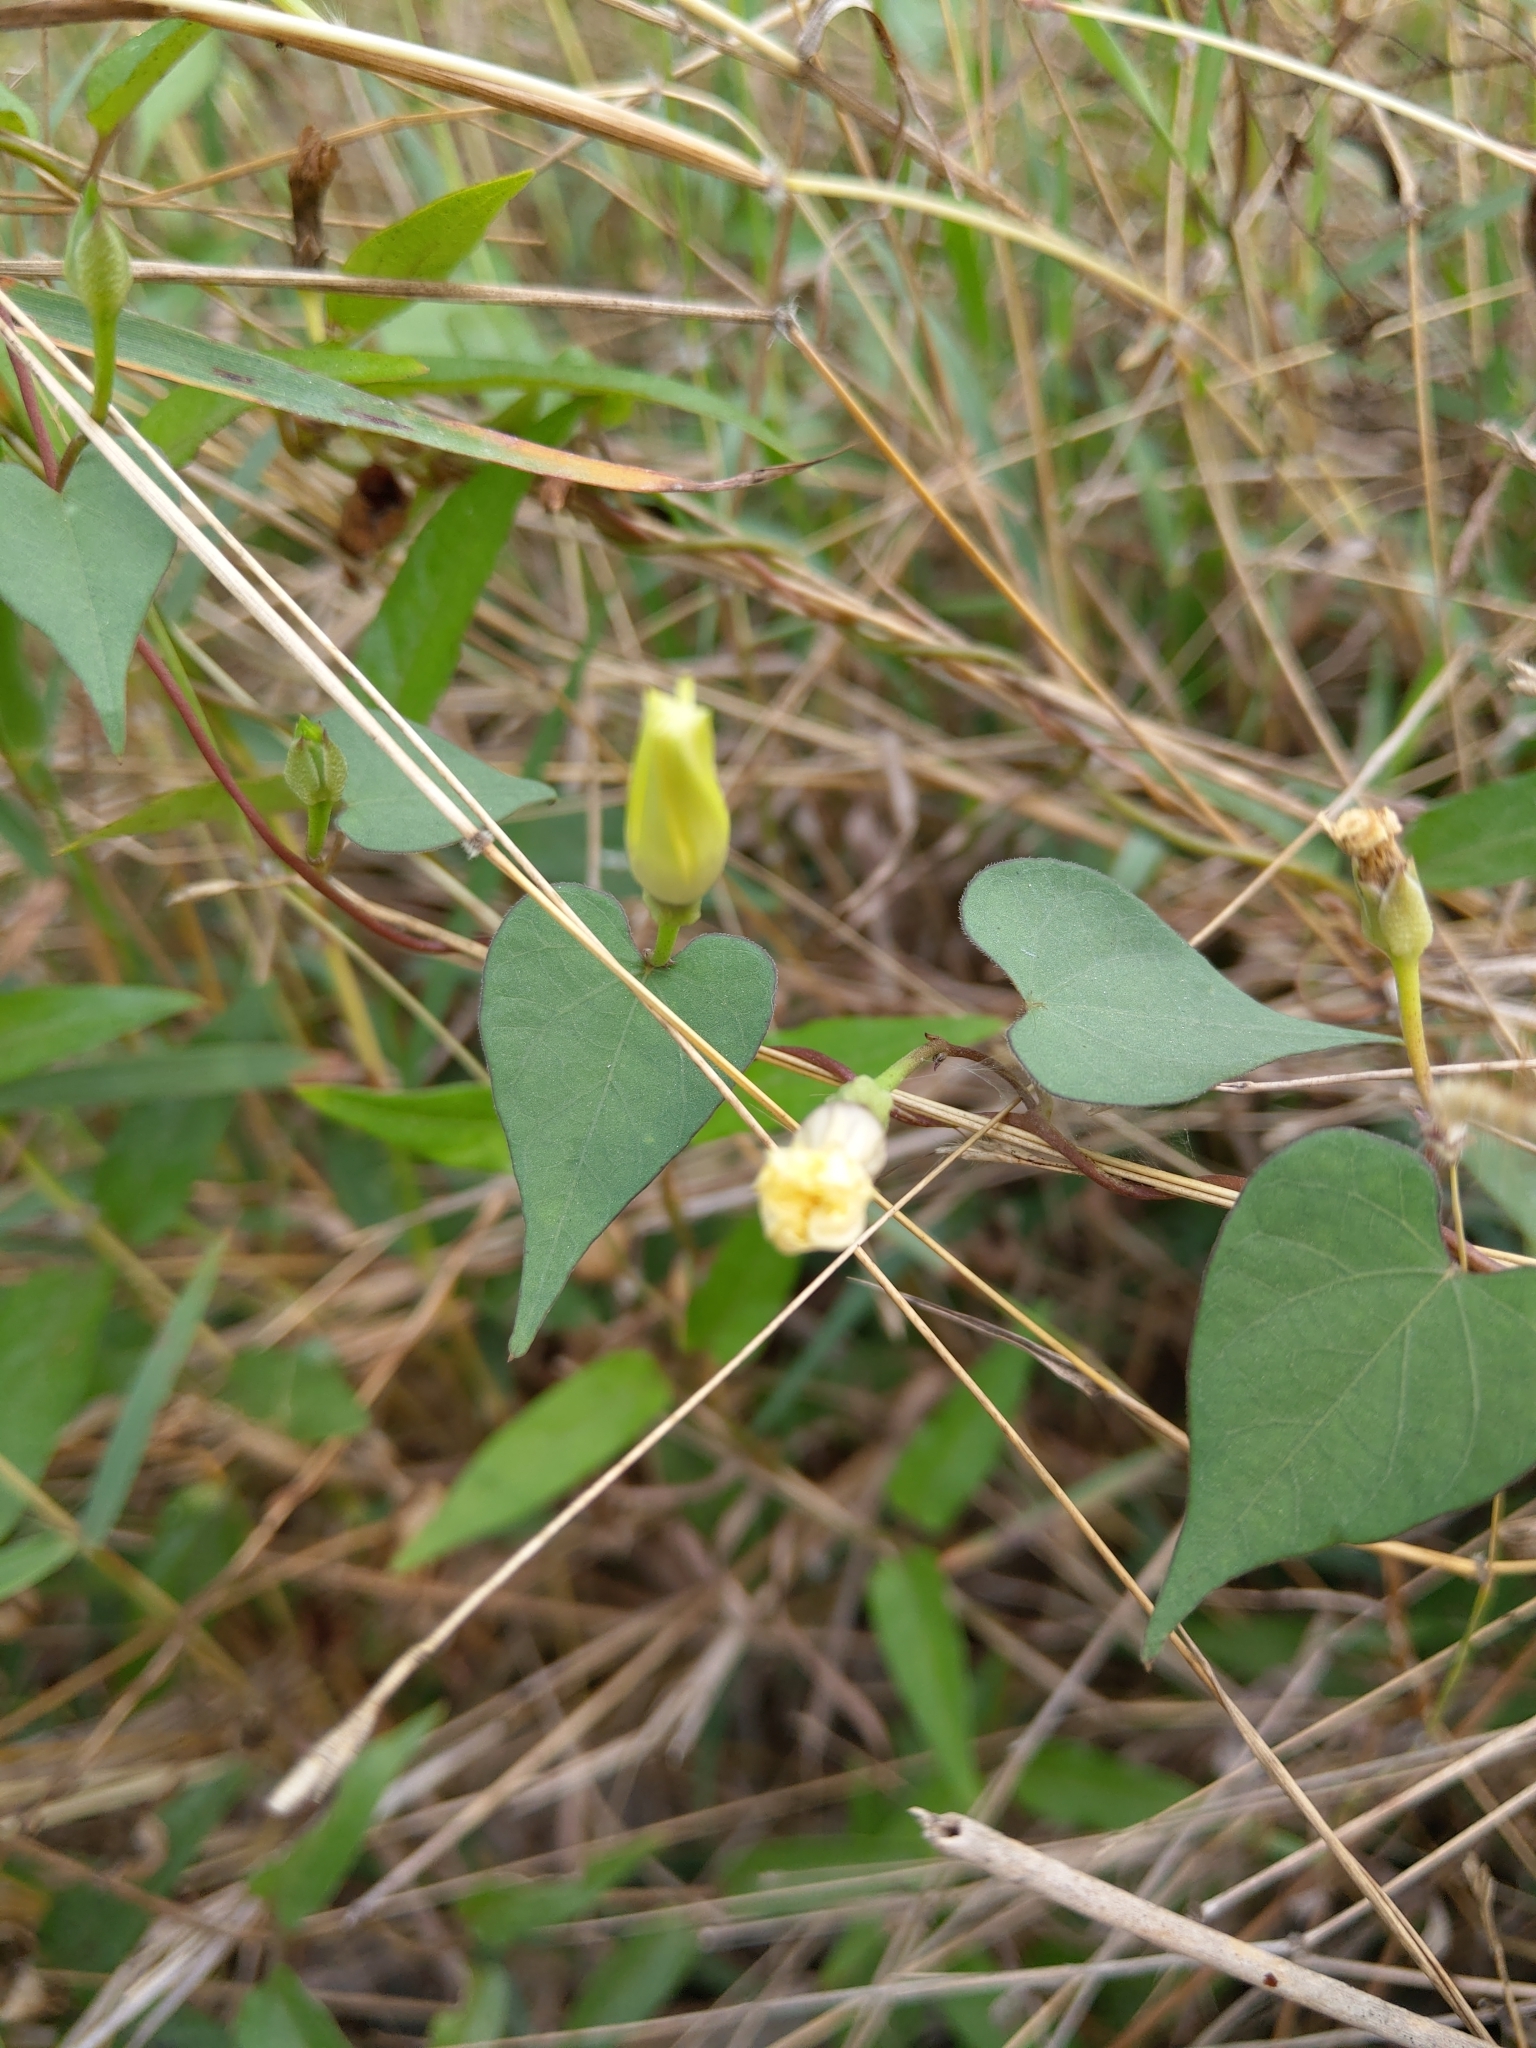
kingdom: Plantae
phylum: Tracheophyta
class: Magnoliopsida
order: Solanales
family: Convolvulaceae
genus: Ipomoea
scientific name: Ipomoea obscura
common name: Obscure morning-glory
